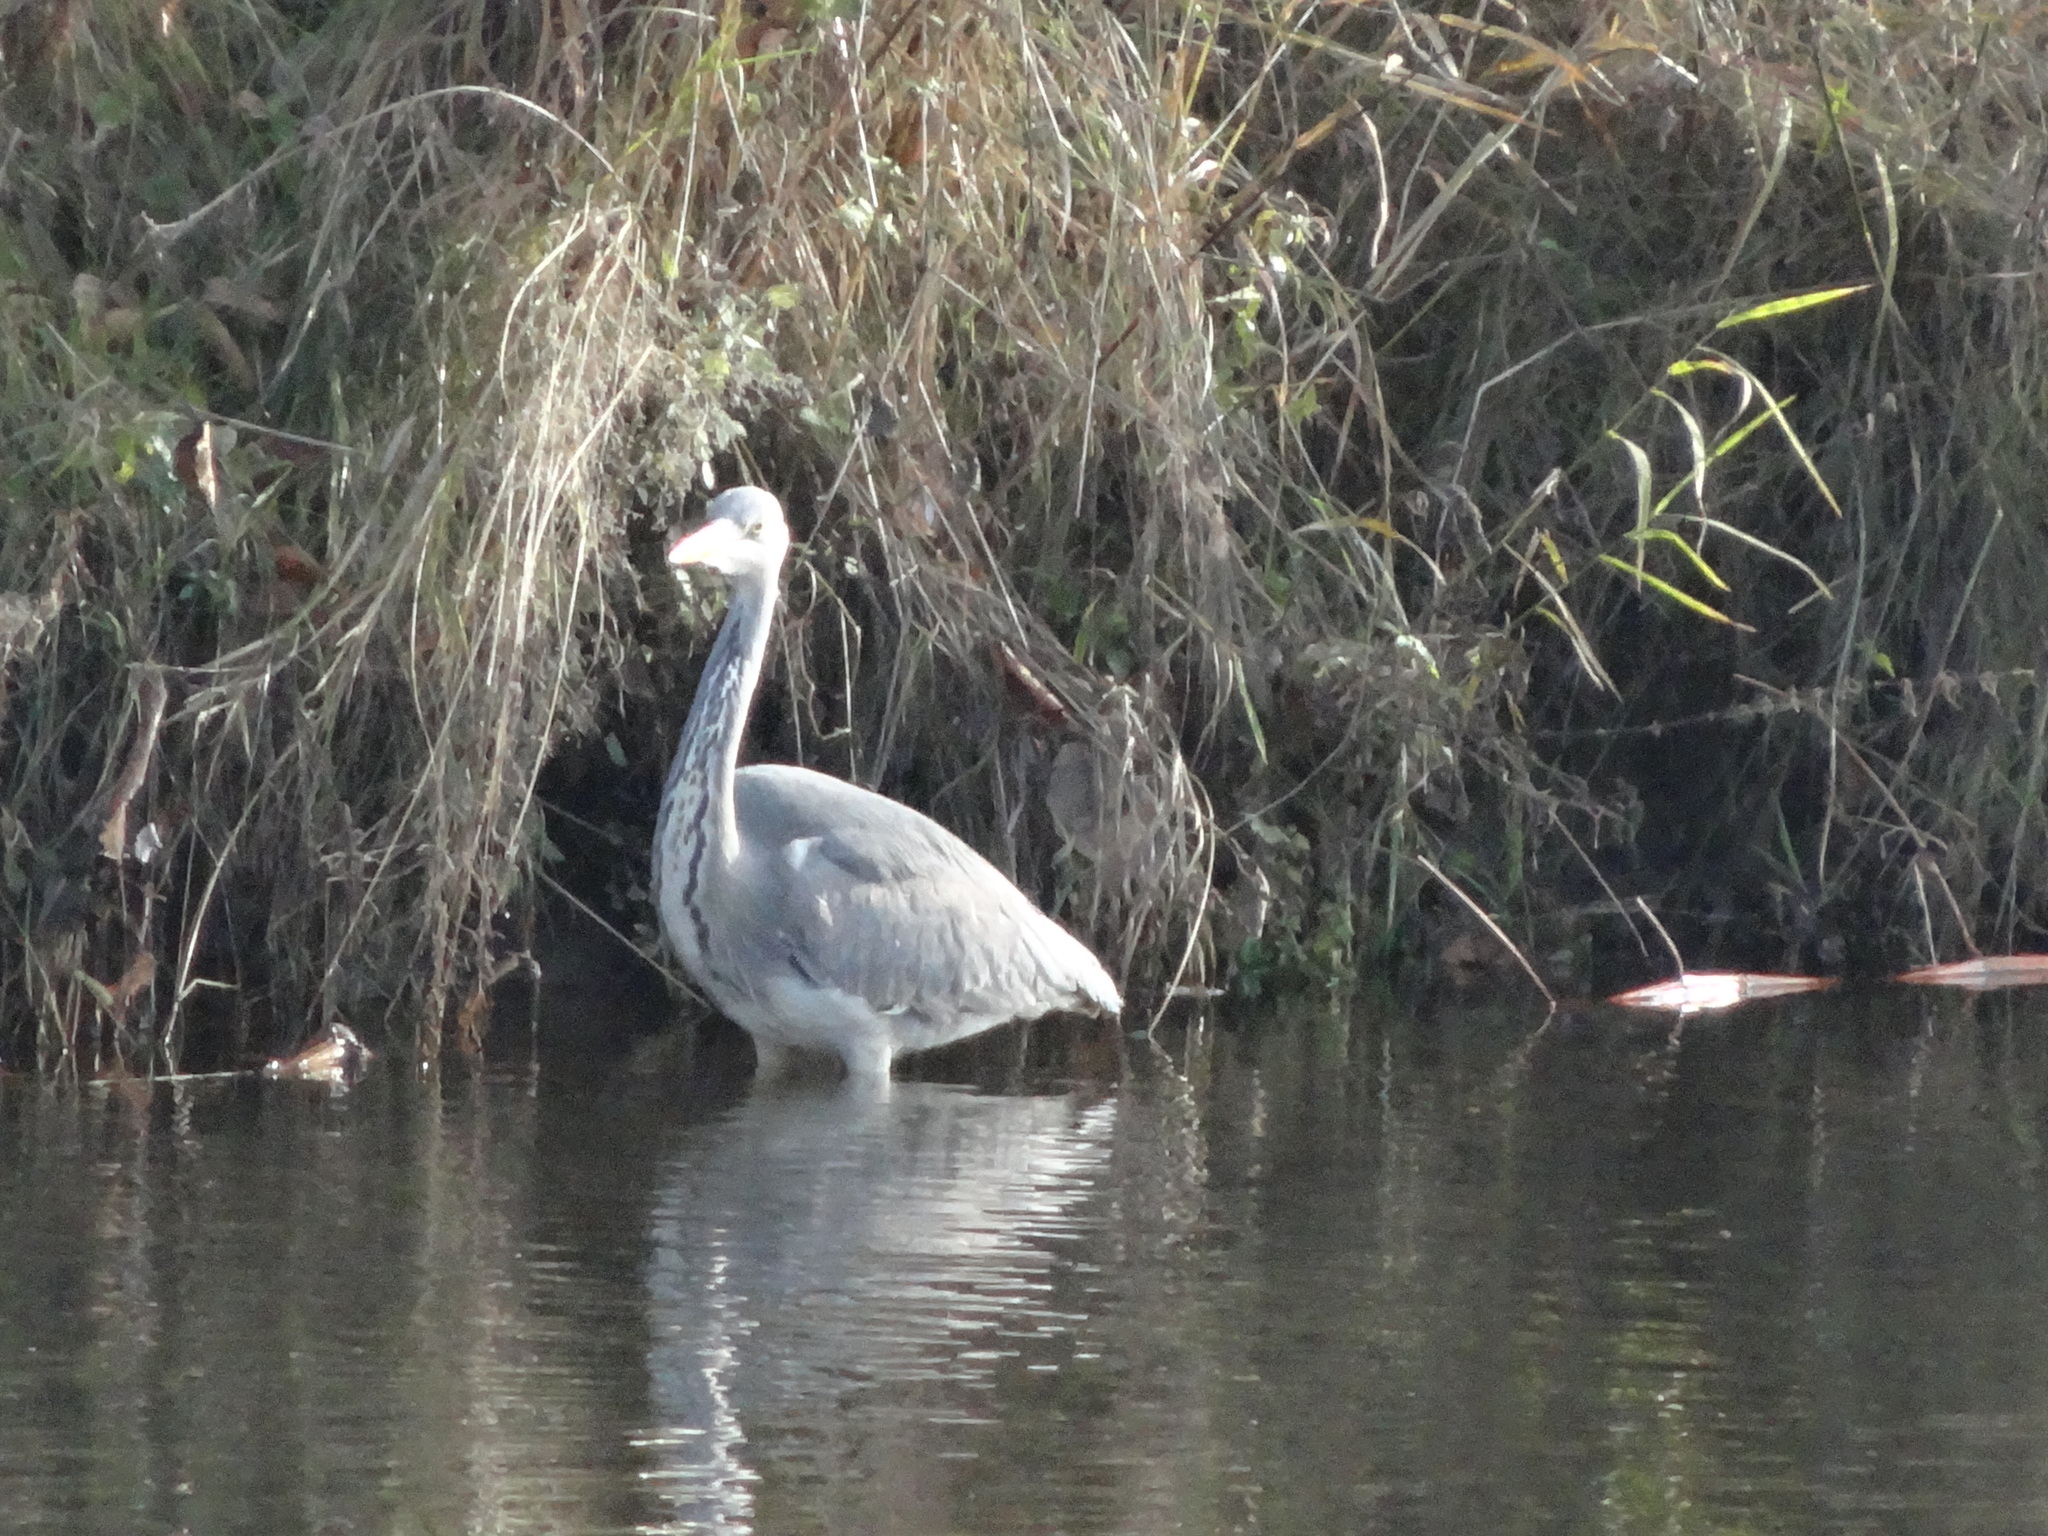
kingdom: Animalia
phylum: Chordata
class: Aves
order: Pelecaniformes
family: Ardeidae
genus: Ardea
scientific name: Ardea cinerea
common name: Grey heron
